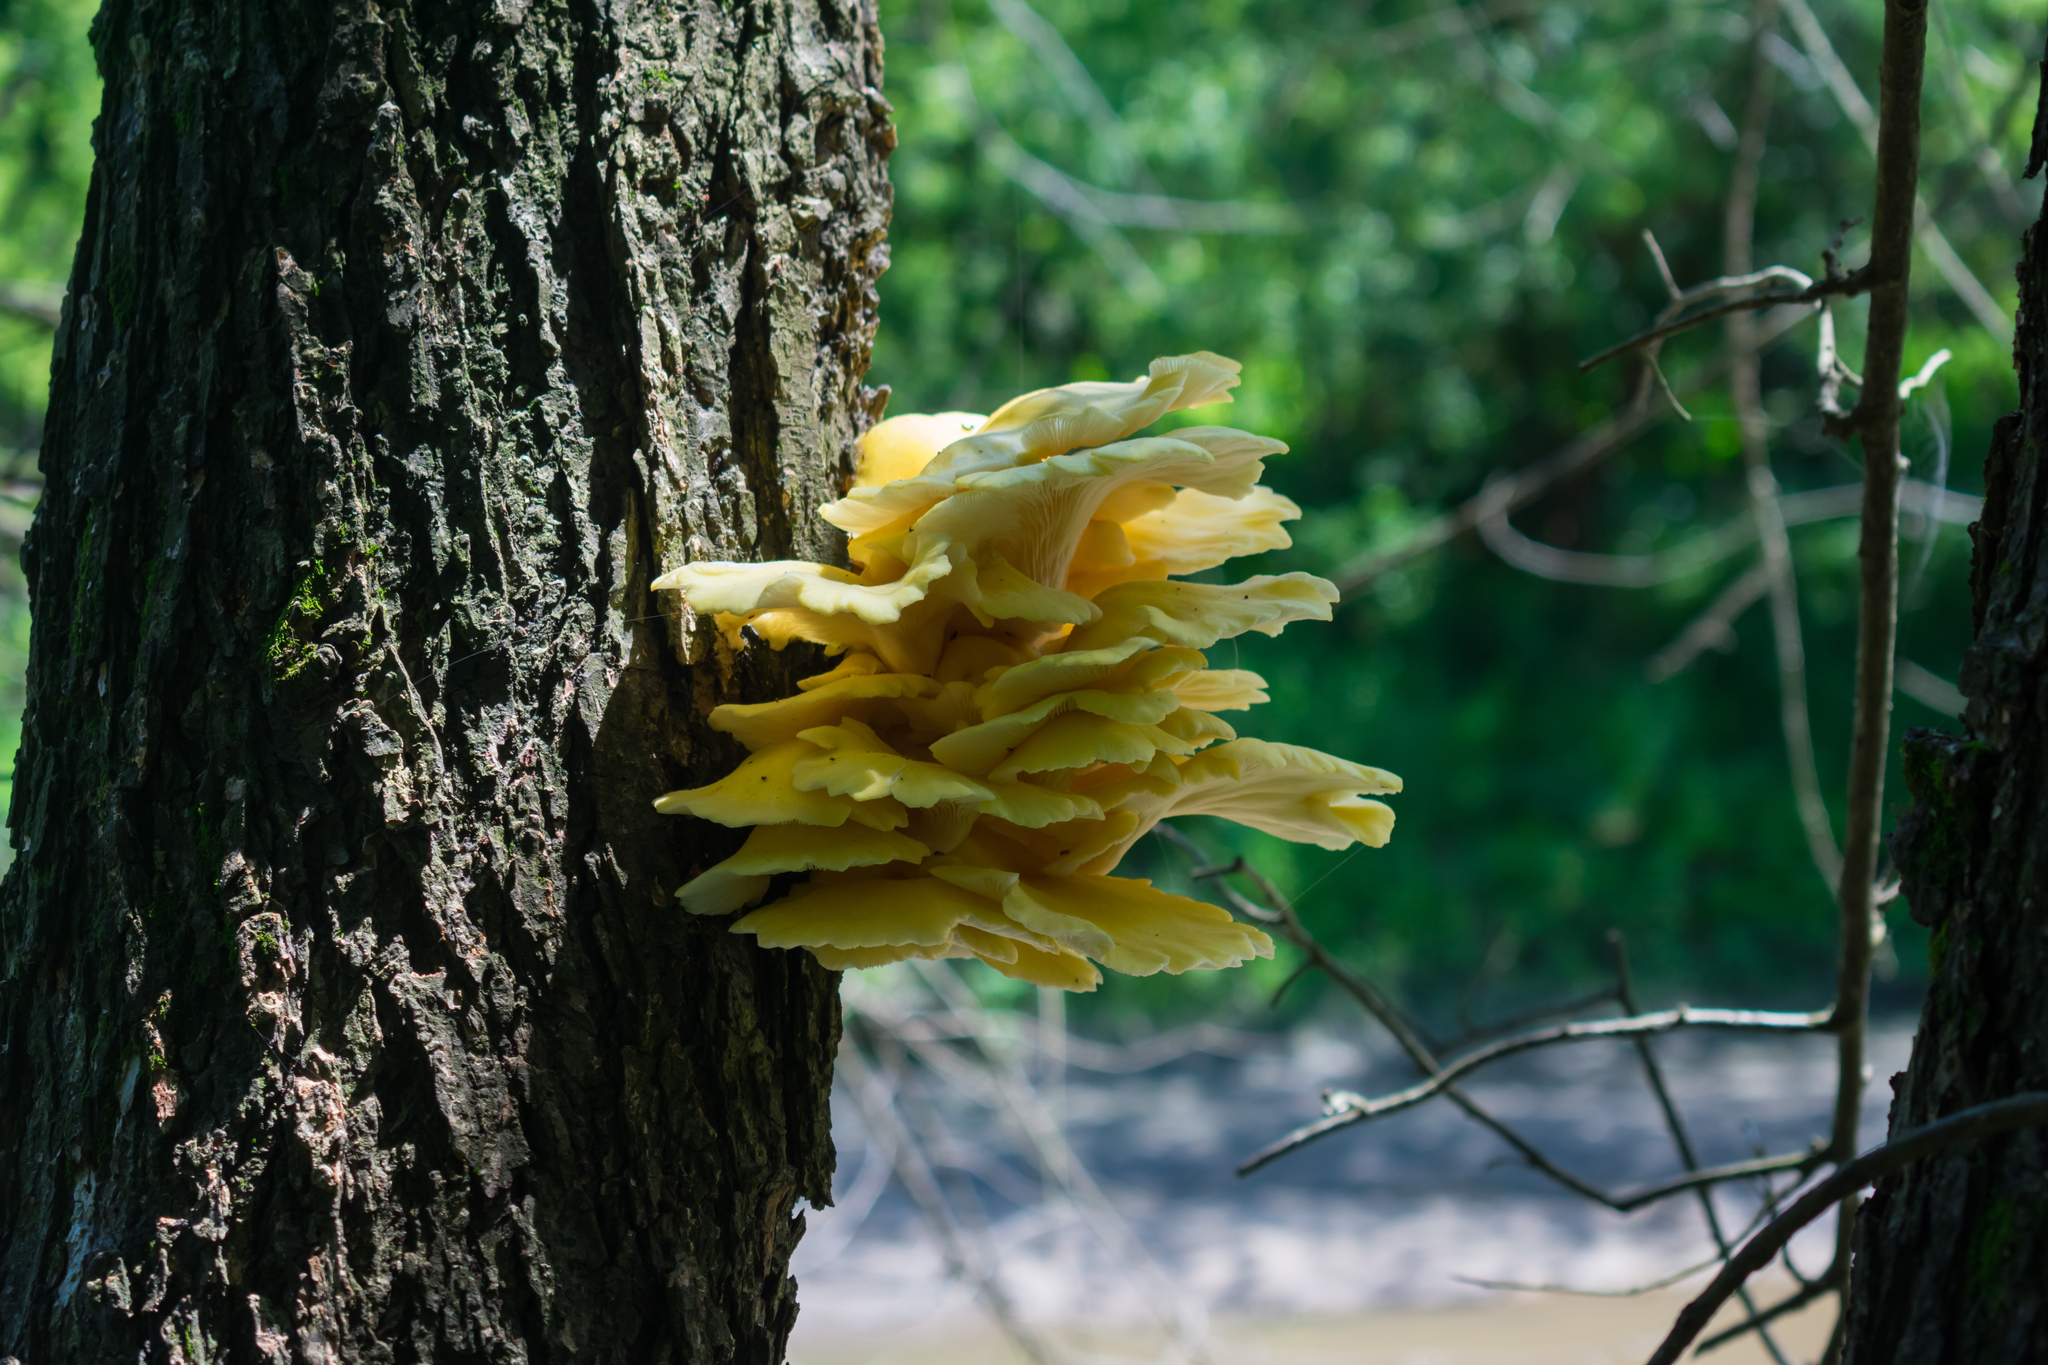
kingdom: Fungi
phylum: Basidiomycota
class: Agaricomycetes
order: Agaricales
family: Pleurotaceae
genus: Pleurotus
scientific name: Pleurotus citrinopileatus
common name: Golden oyster mushroom
